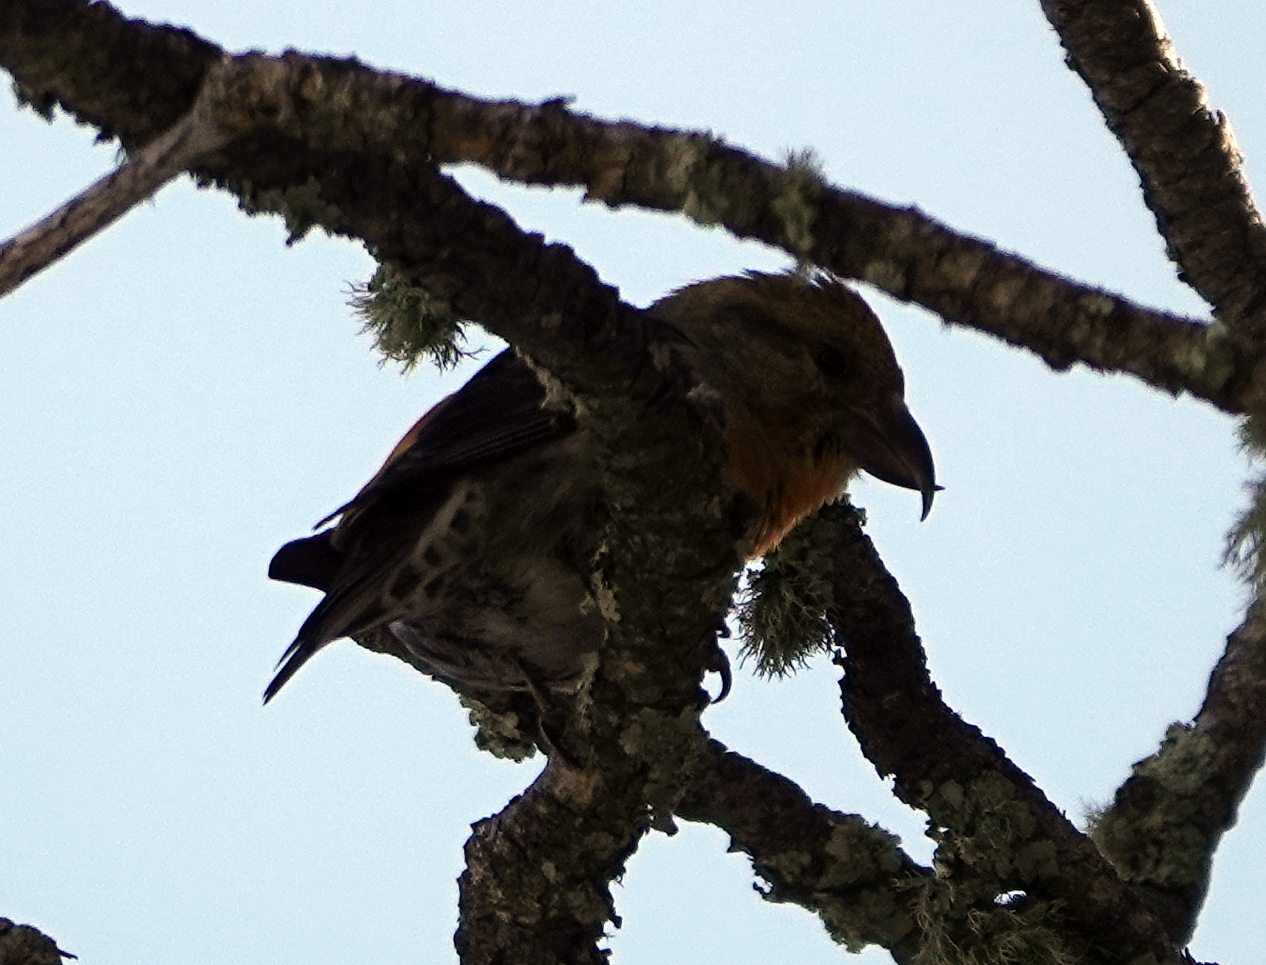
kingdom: Animalia
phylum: Chordata
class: Aves
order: Passeriformes
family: Fringillidae
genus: Loxia
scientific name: Loxia curvirostra
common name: Red crossbill
